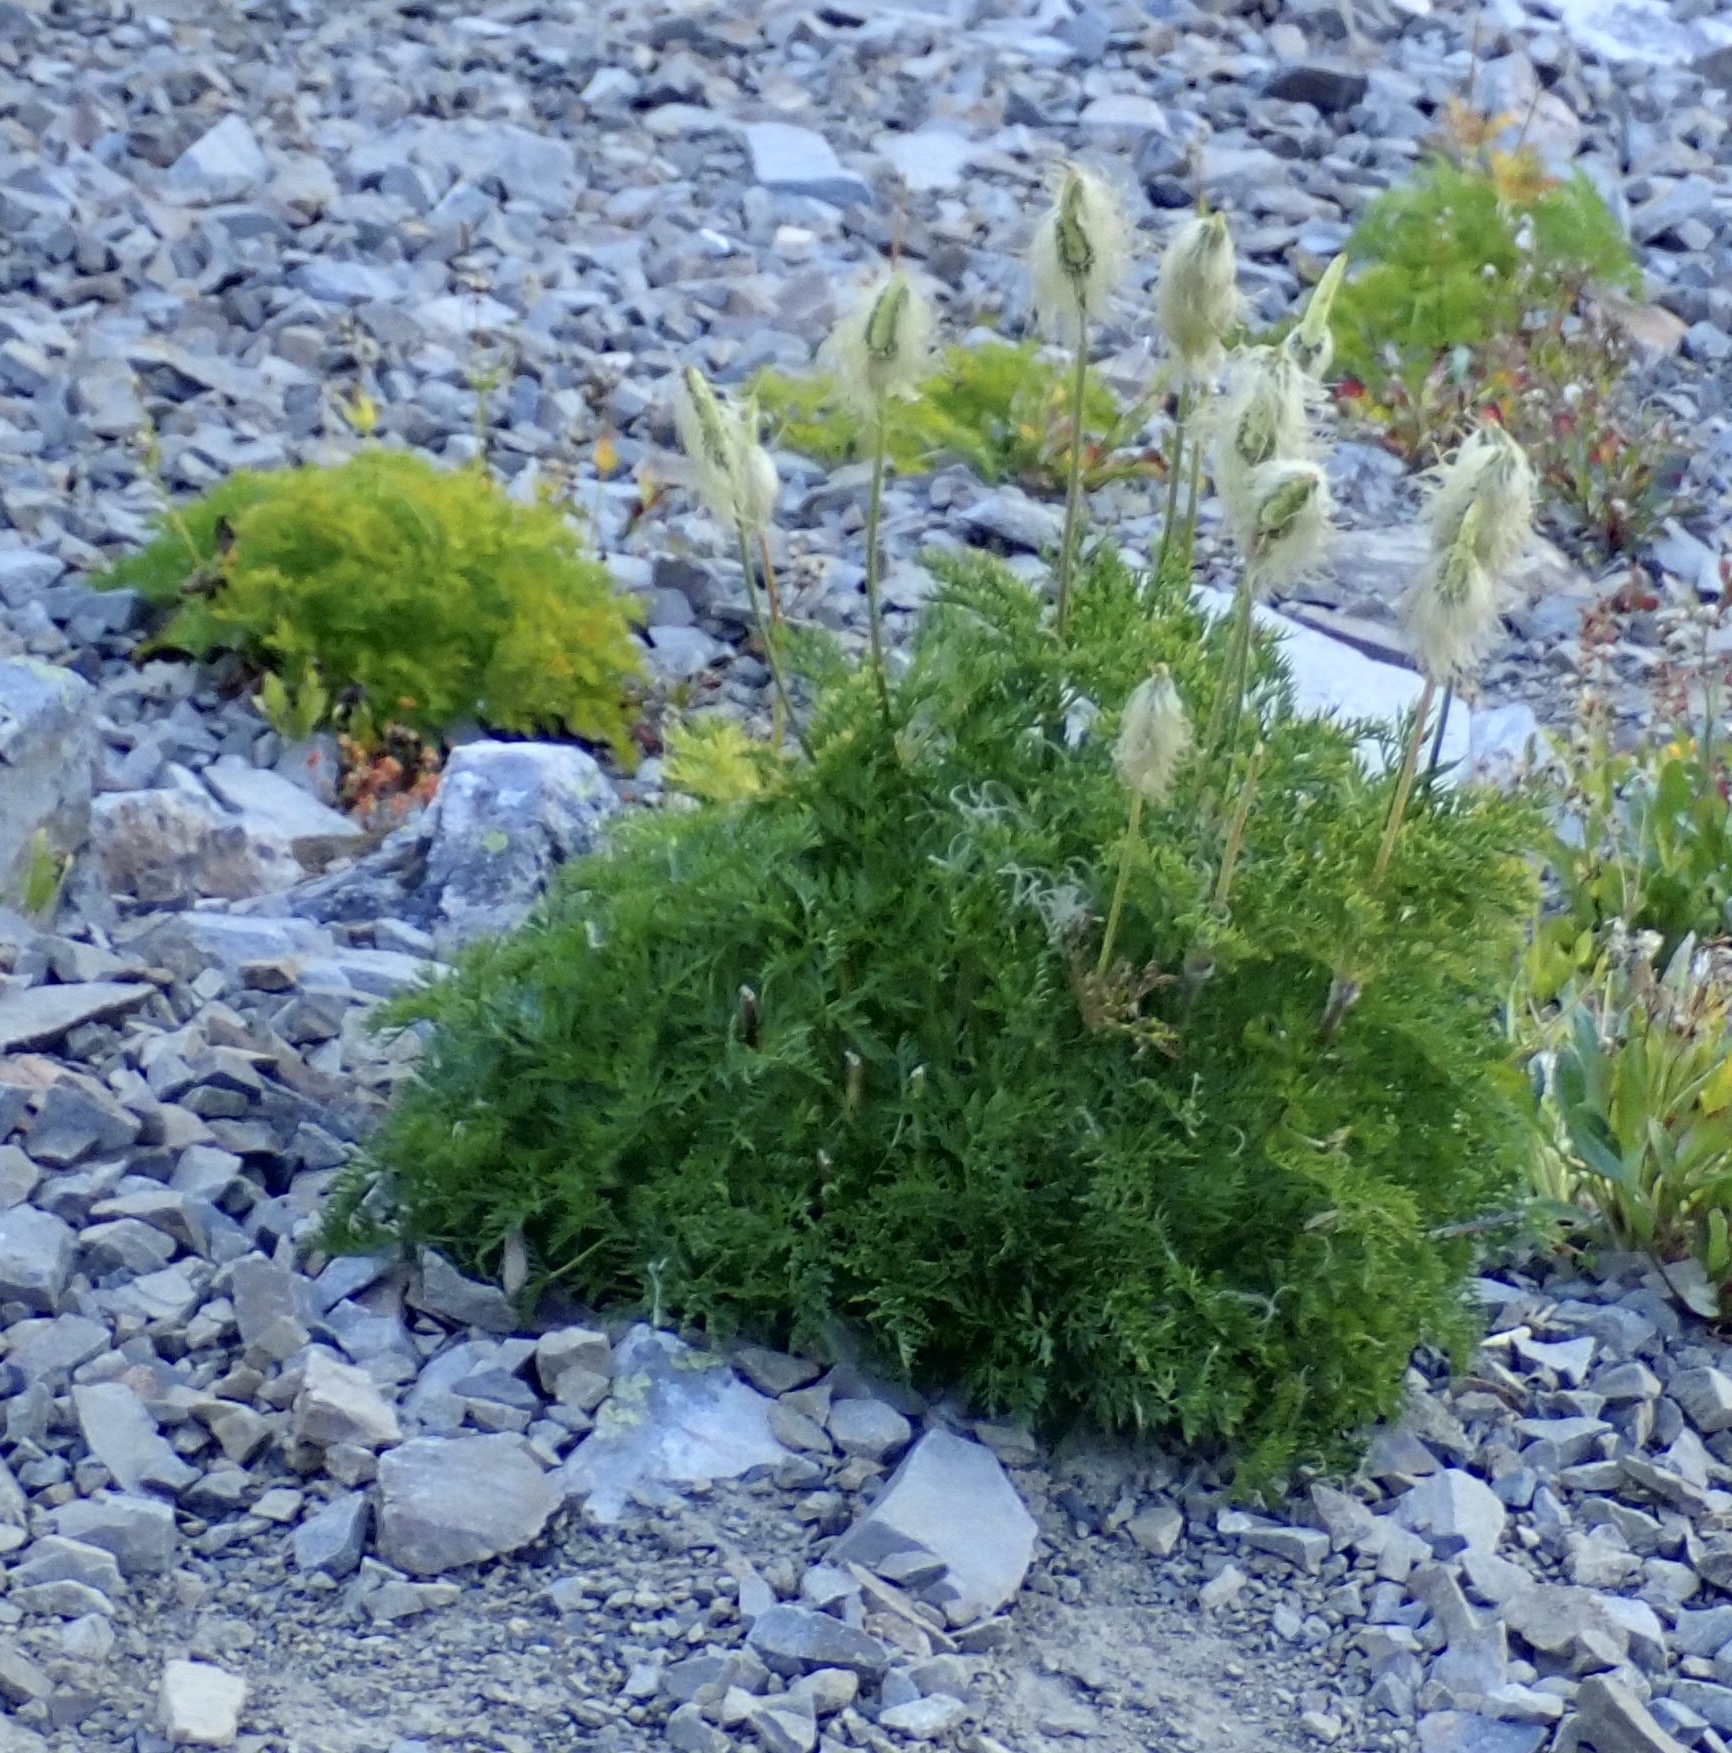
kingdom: Plantae
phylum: Tracheophyta
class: Magnoliopsida
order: Ranunculales
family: Ranunculaceae
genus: Pulsatilla
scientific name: Pulsatilla occidentalis
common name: Mountain pasqueflower
